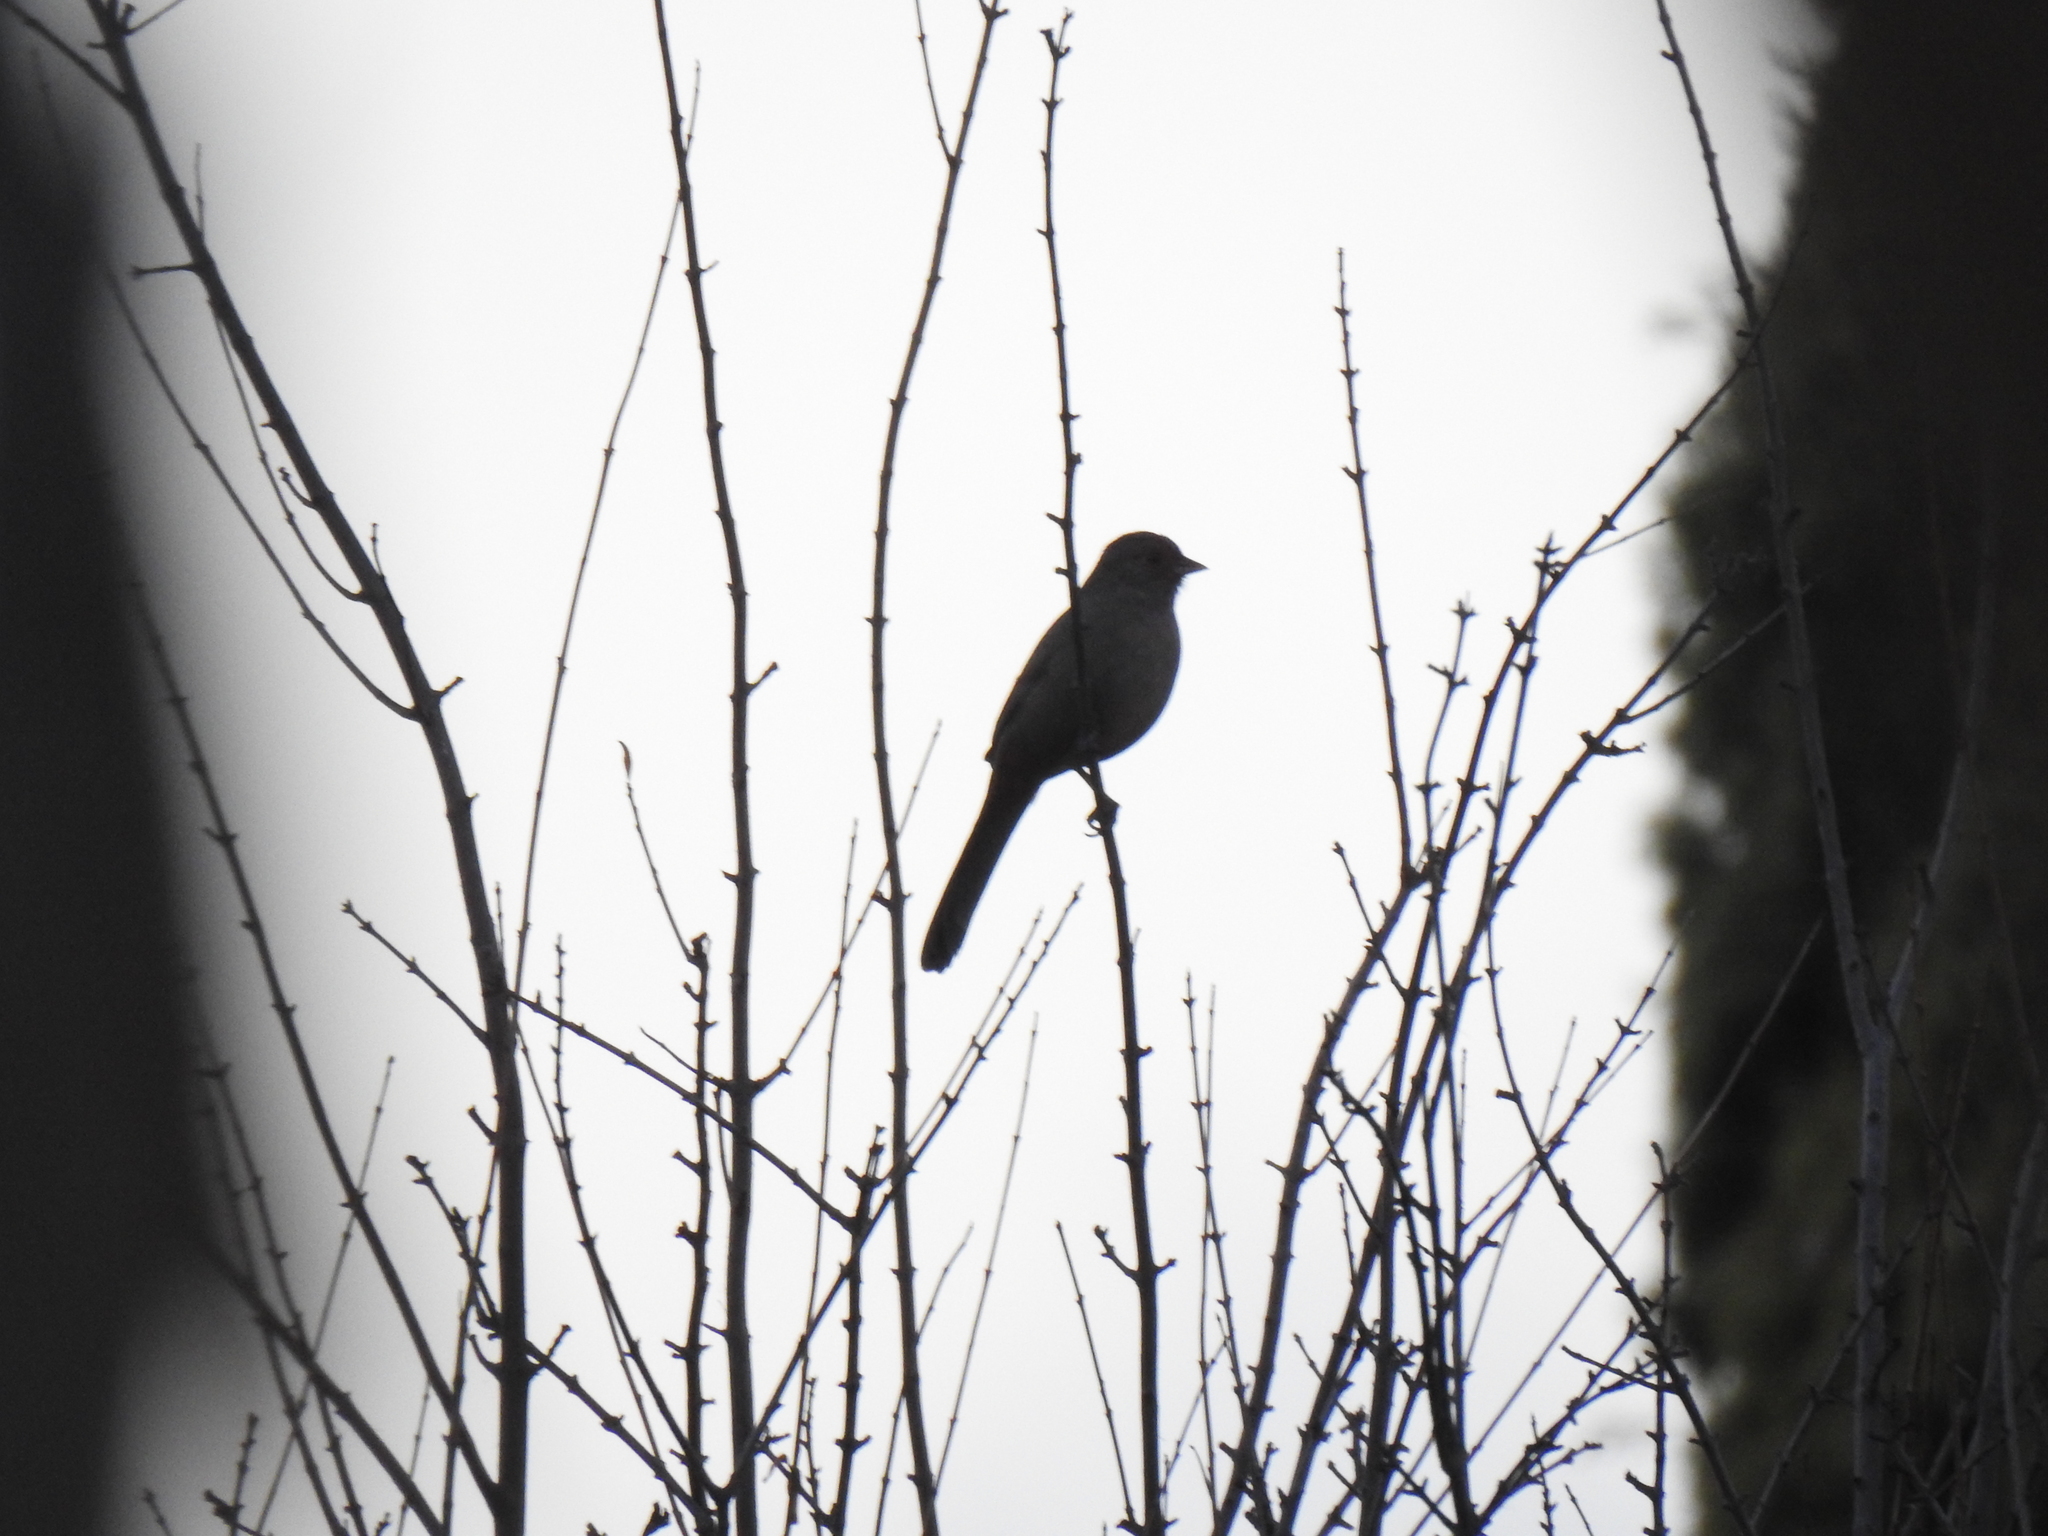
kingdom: Animalia
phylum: Chordata
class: Aves
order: Passeriformes
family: Passerellidae
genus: Melozone
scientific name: Melozone crissalis
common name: California towhee
